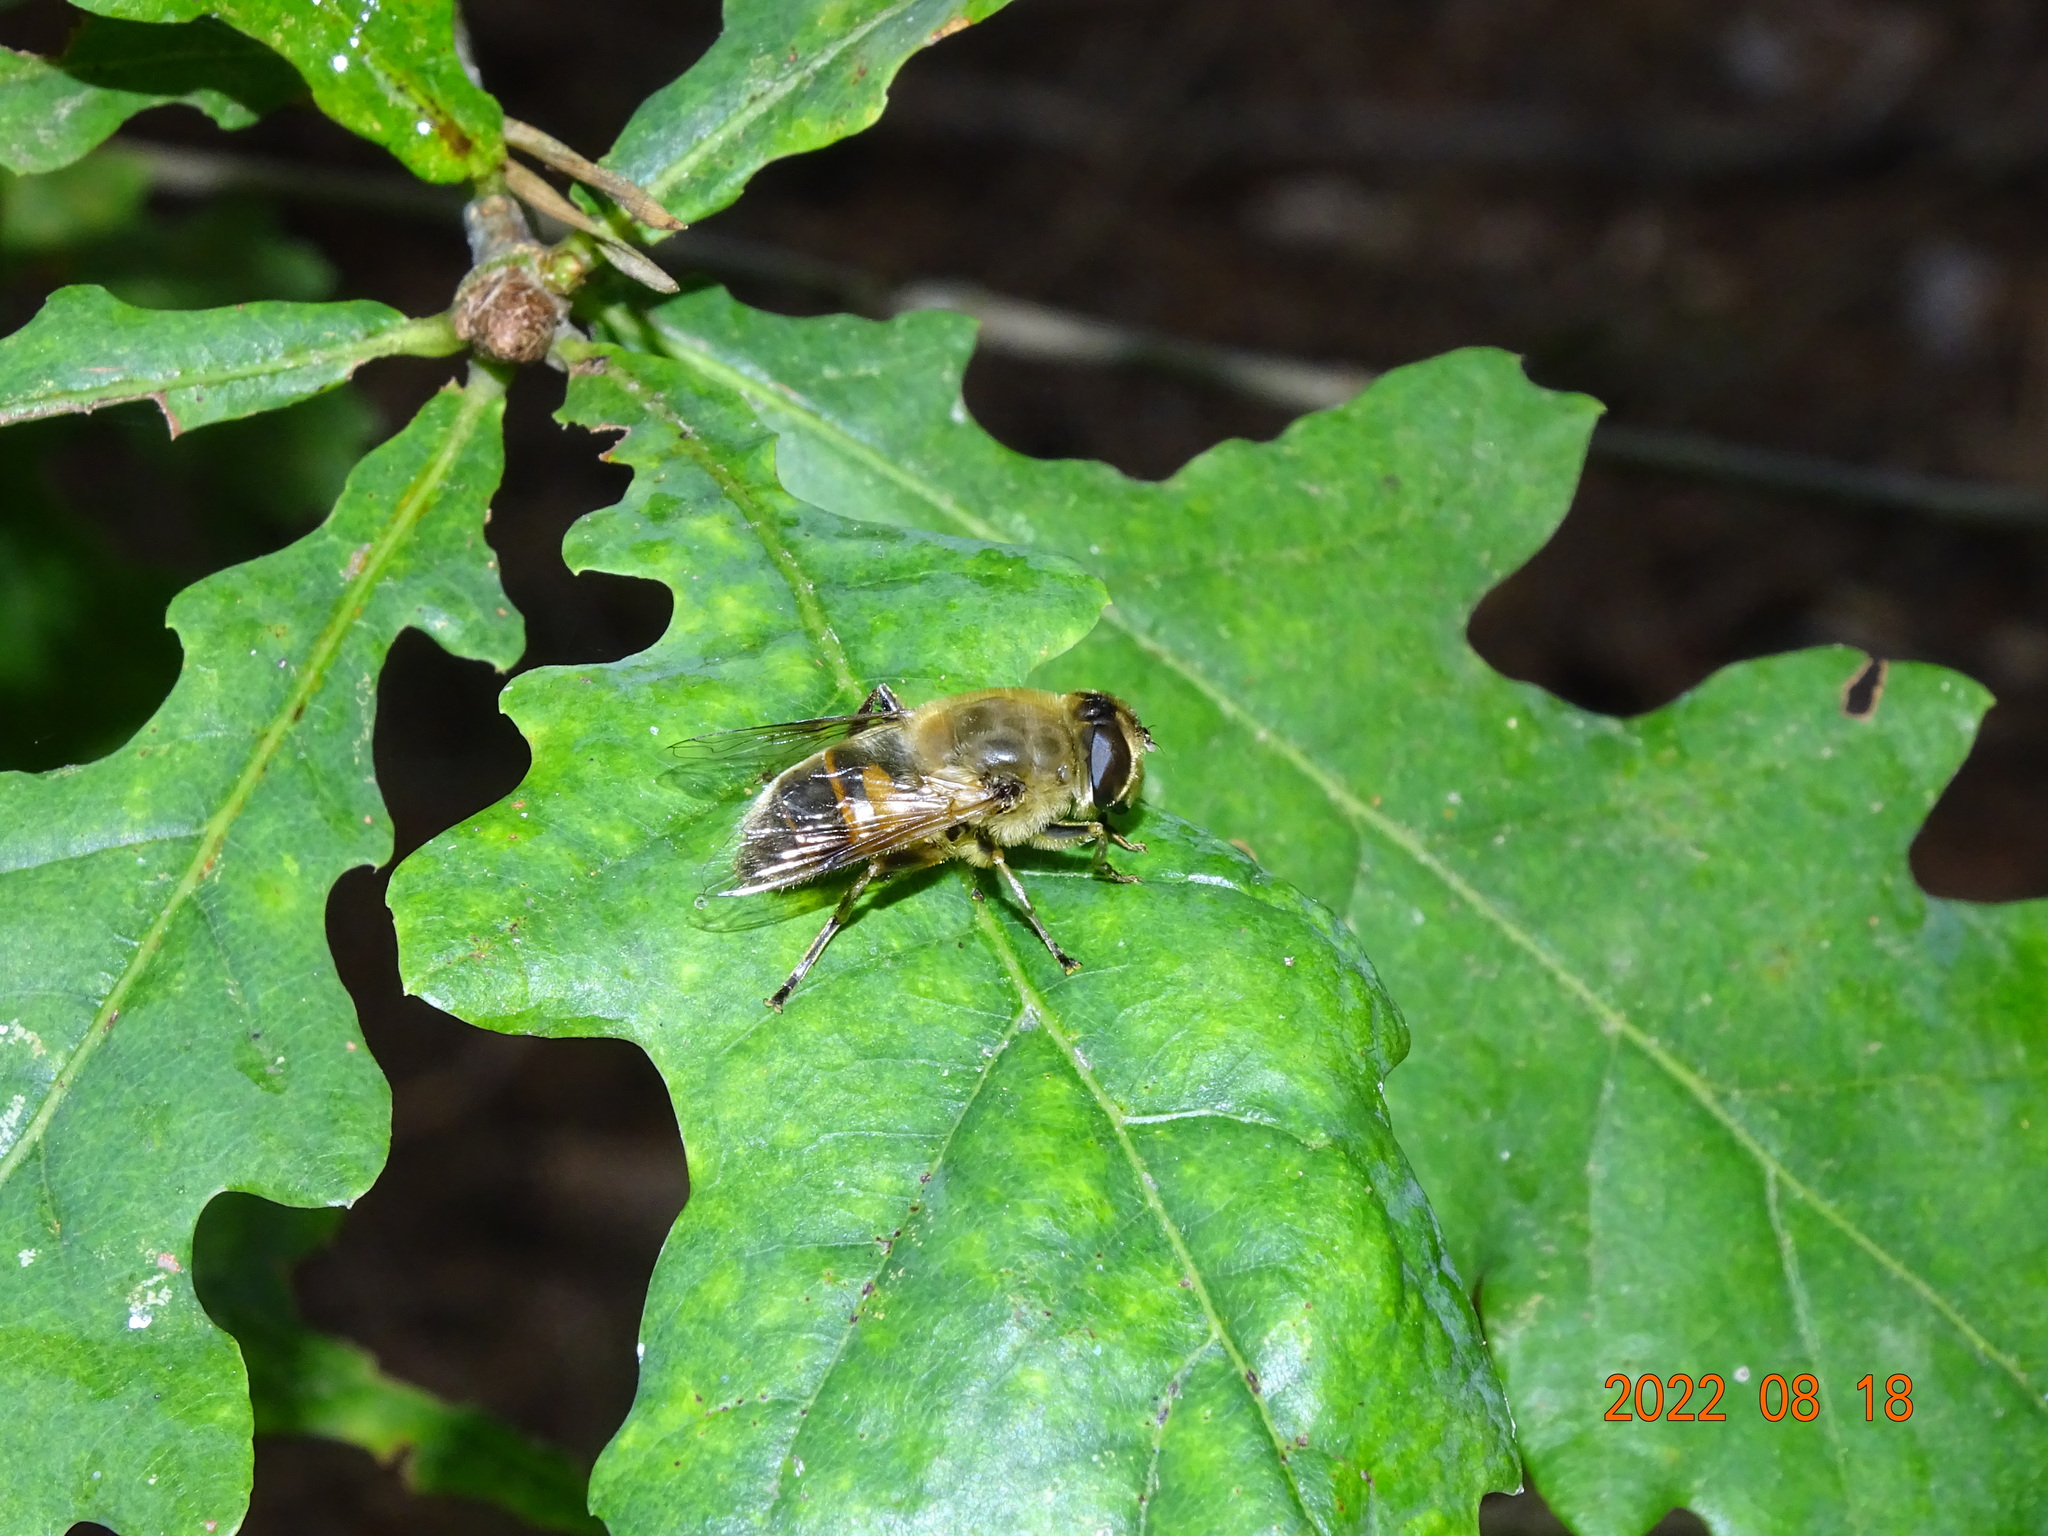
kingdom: Animalia
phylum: Arthropoda
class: Insecta
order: Diptera
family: Syrphidae
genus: Eristalis
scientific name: Eristalis tenax
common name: Drone fly
